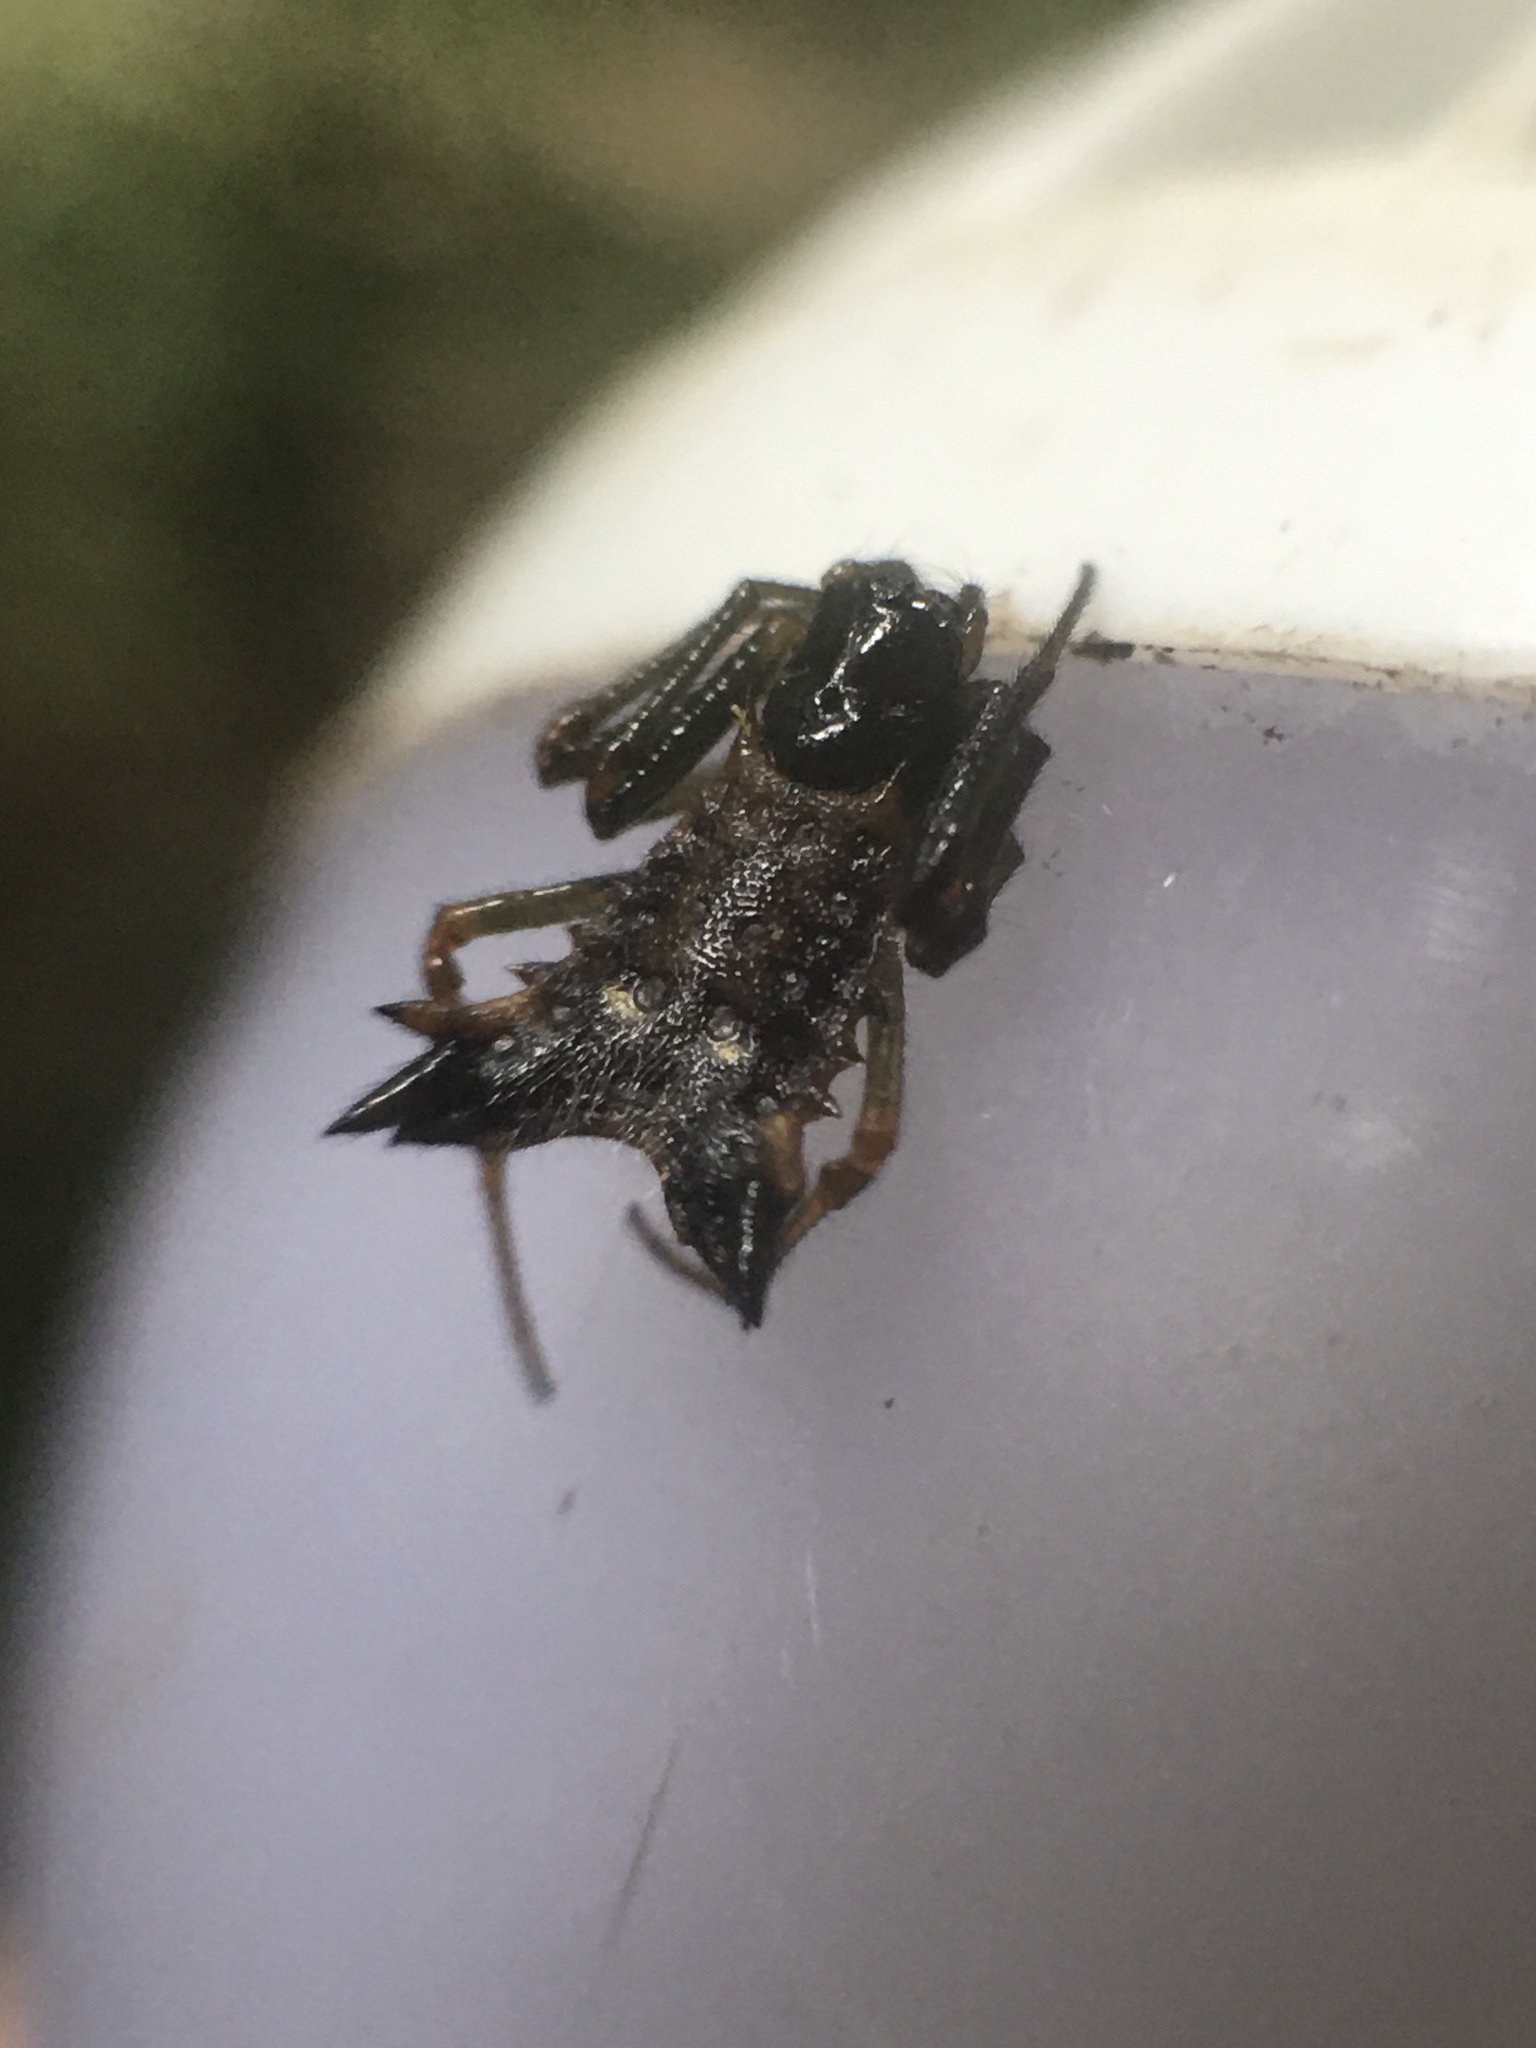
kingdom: Animalia
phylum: Arthropoda
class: Arachnida
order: Araneae
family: Araneidae
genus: Micrathena
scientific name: Micrathena triangularis
